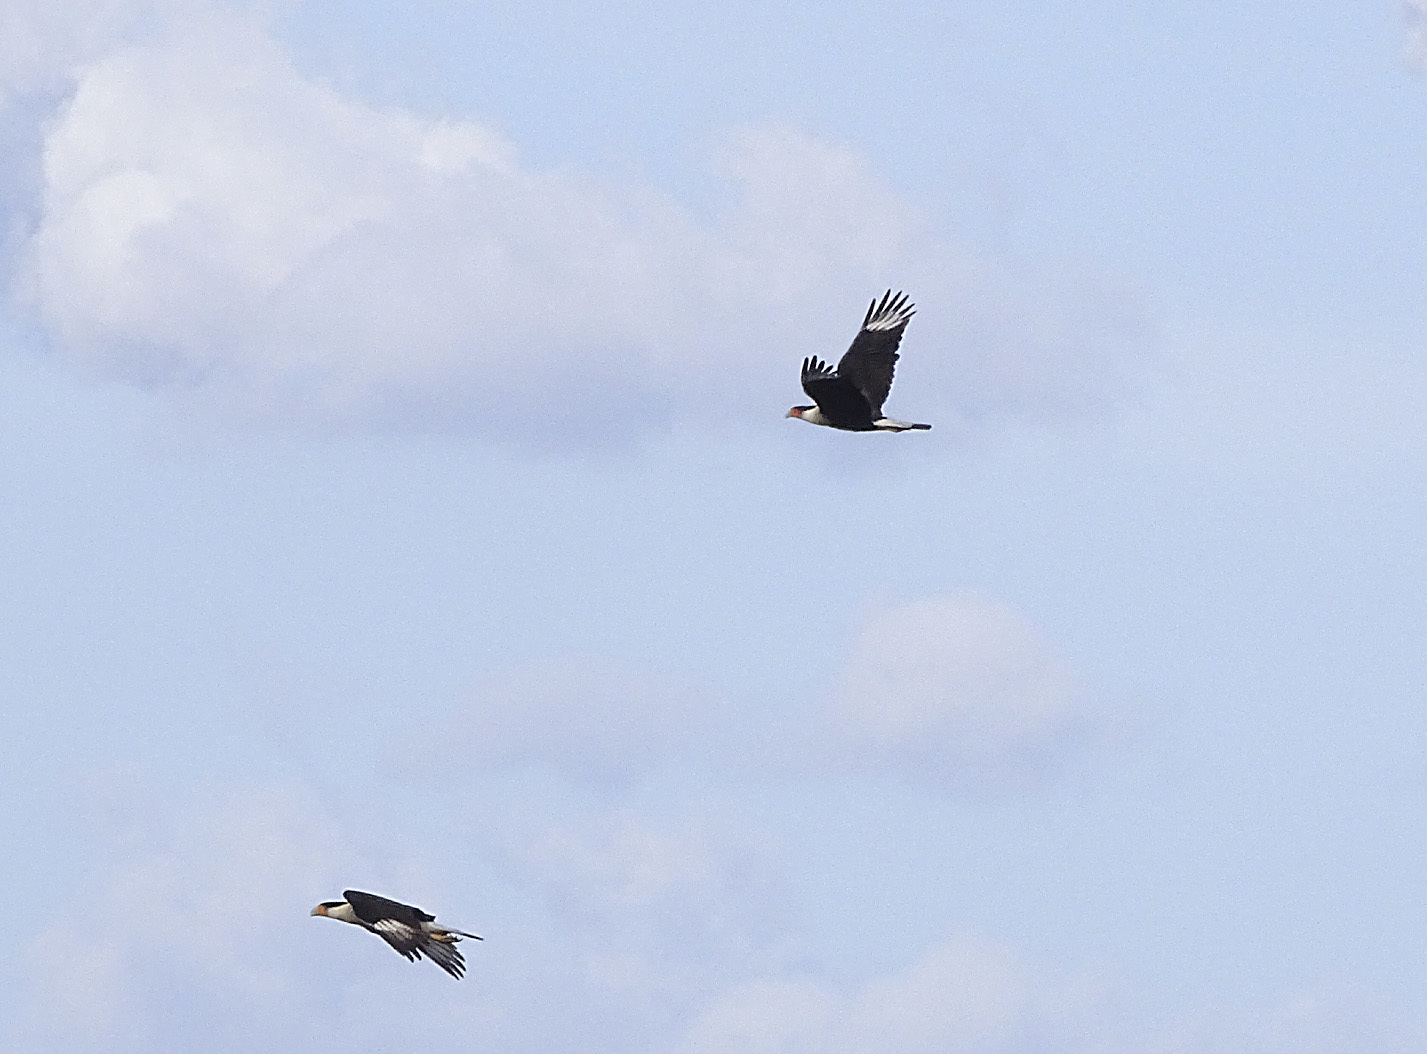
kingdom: Animalia
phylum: Chordata
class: Aves
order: Falconiformes
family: Falconidae
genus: Caracara
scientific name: Caracara plancus
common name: Southern caracara
